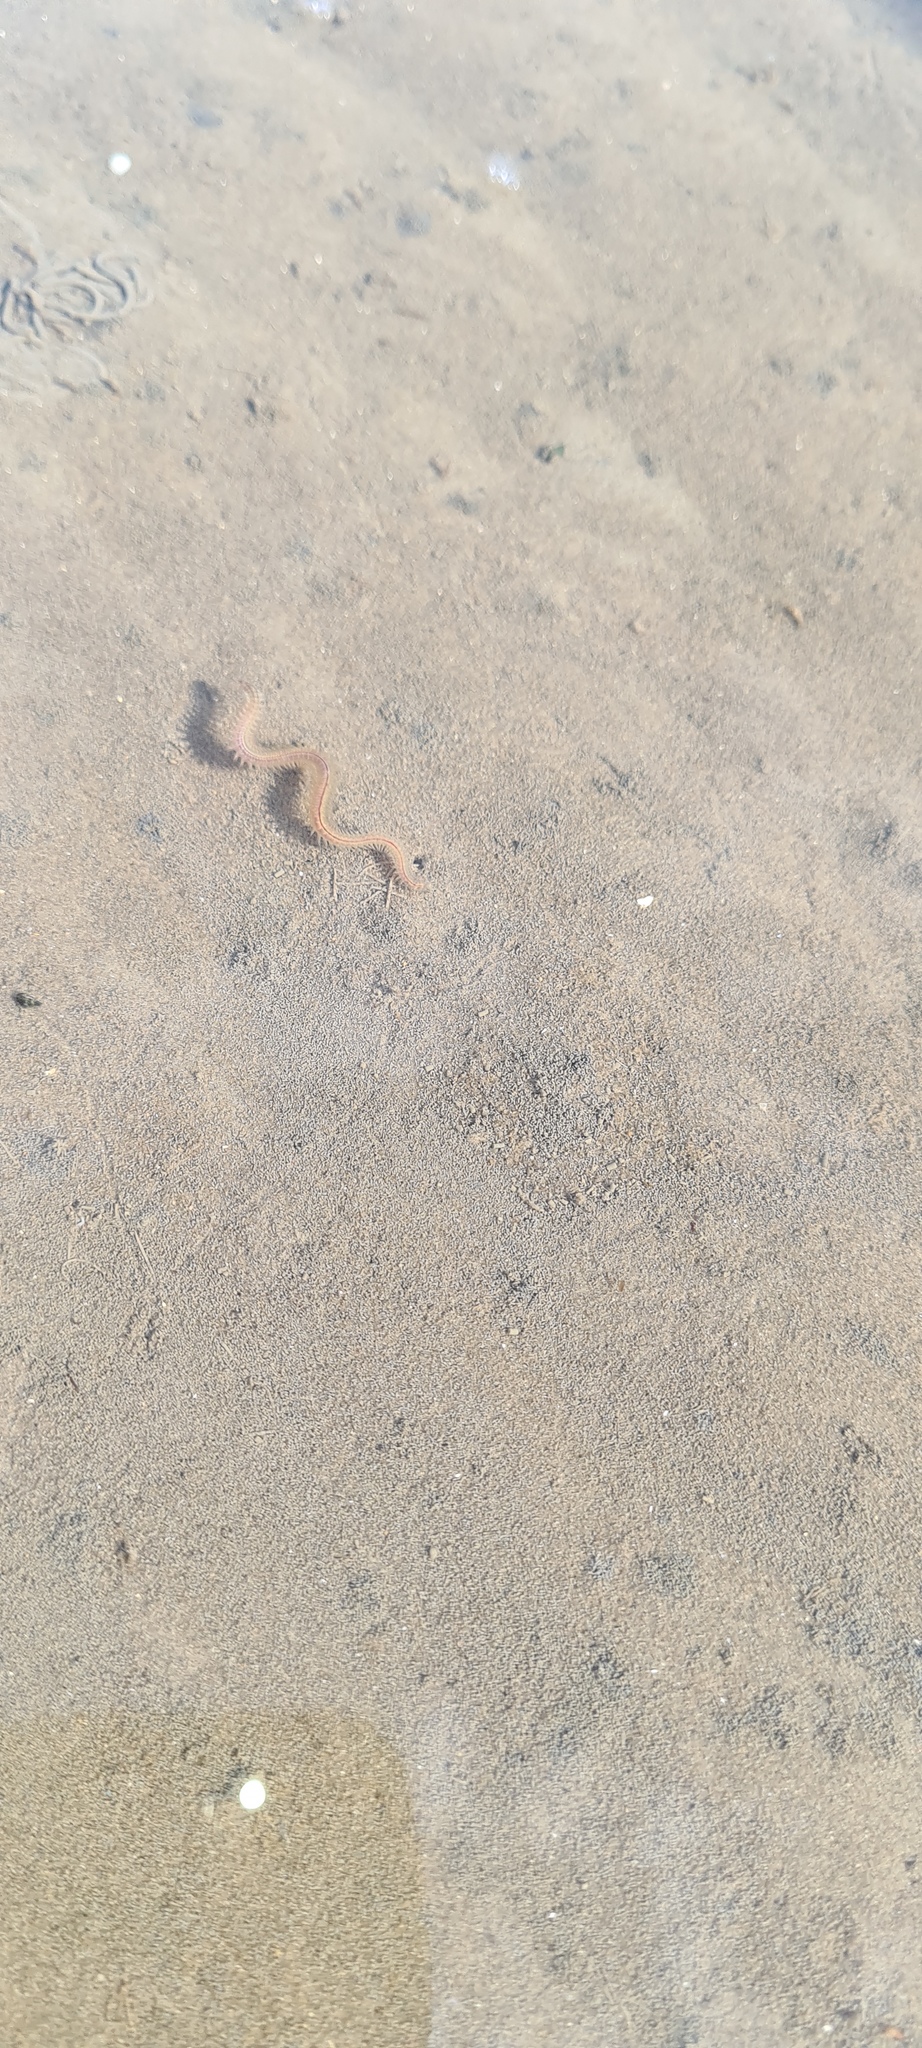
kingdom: Animalia
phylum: Annelida
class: Polychaeta
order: Phyllodocida
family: Nereididae
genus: Hediste
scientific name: Hediste diversicolor
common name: Estuary ragworm
